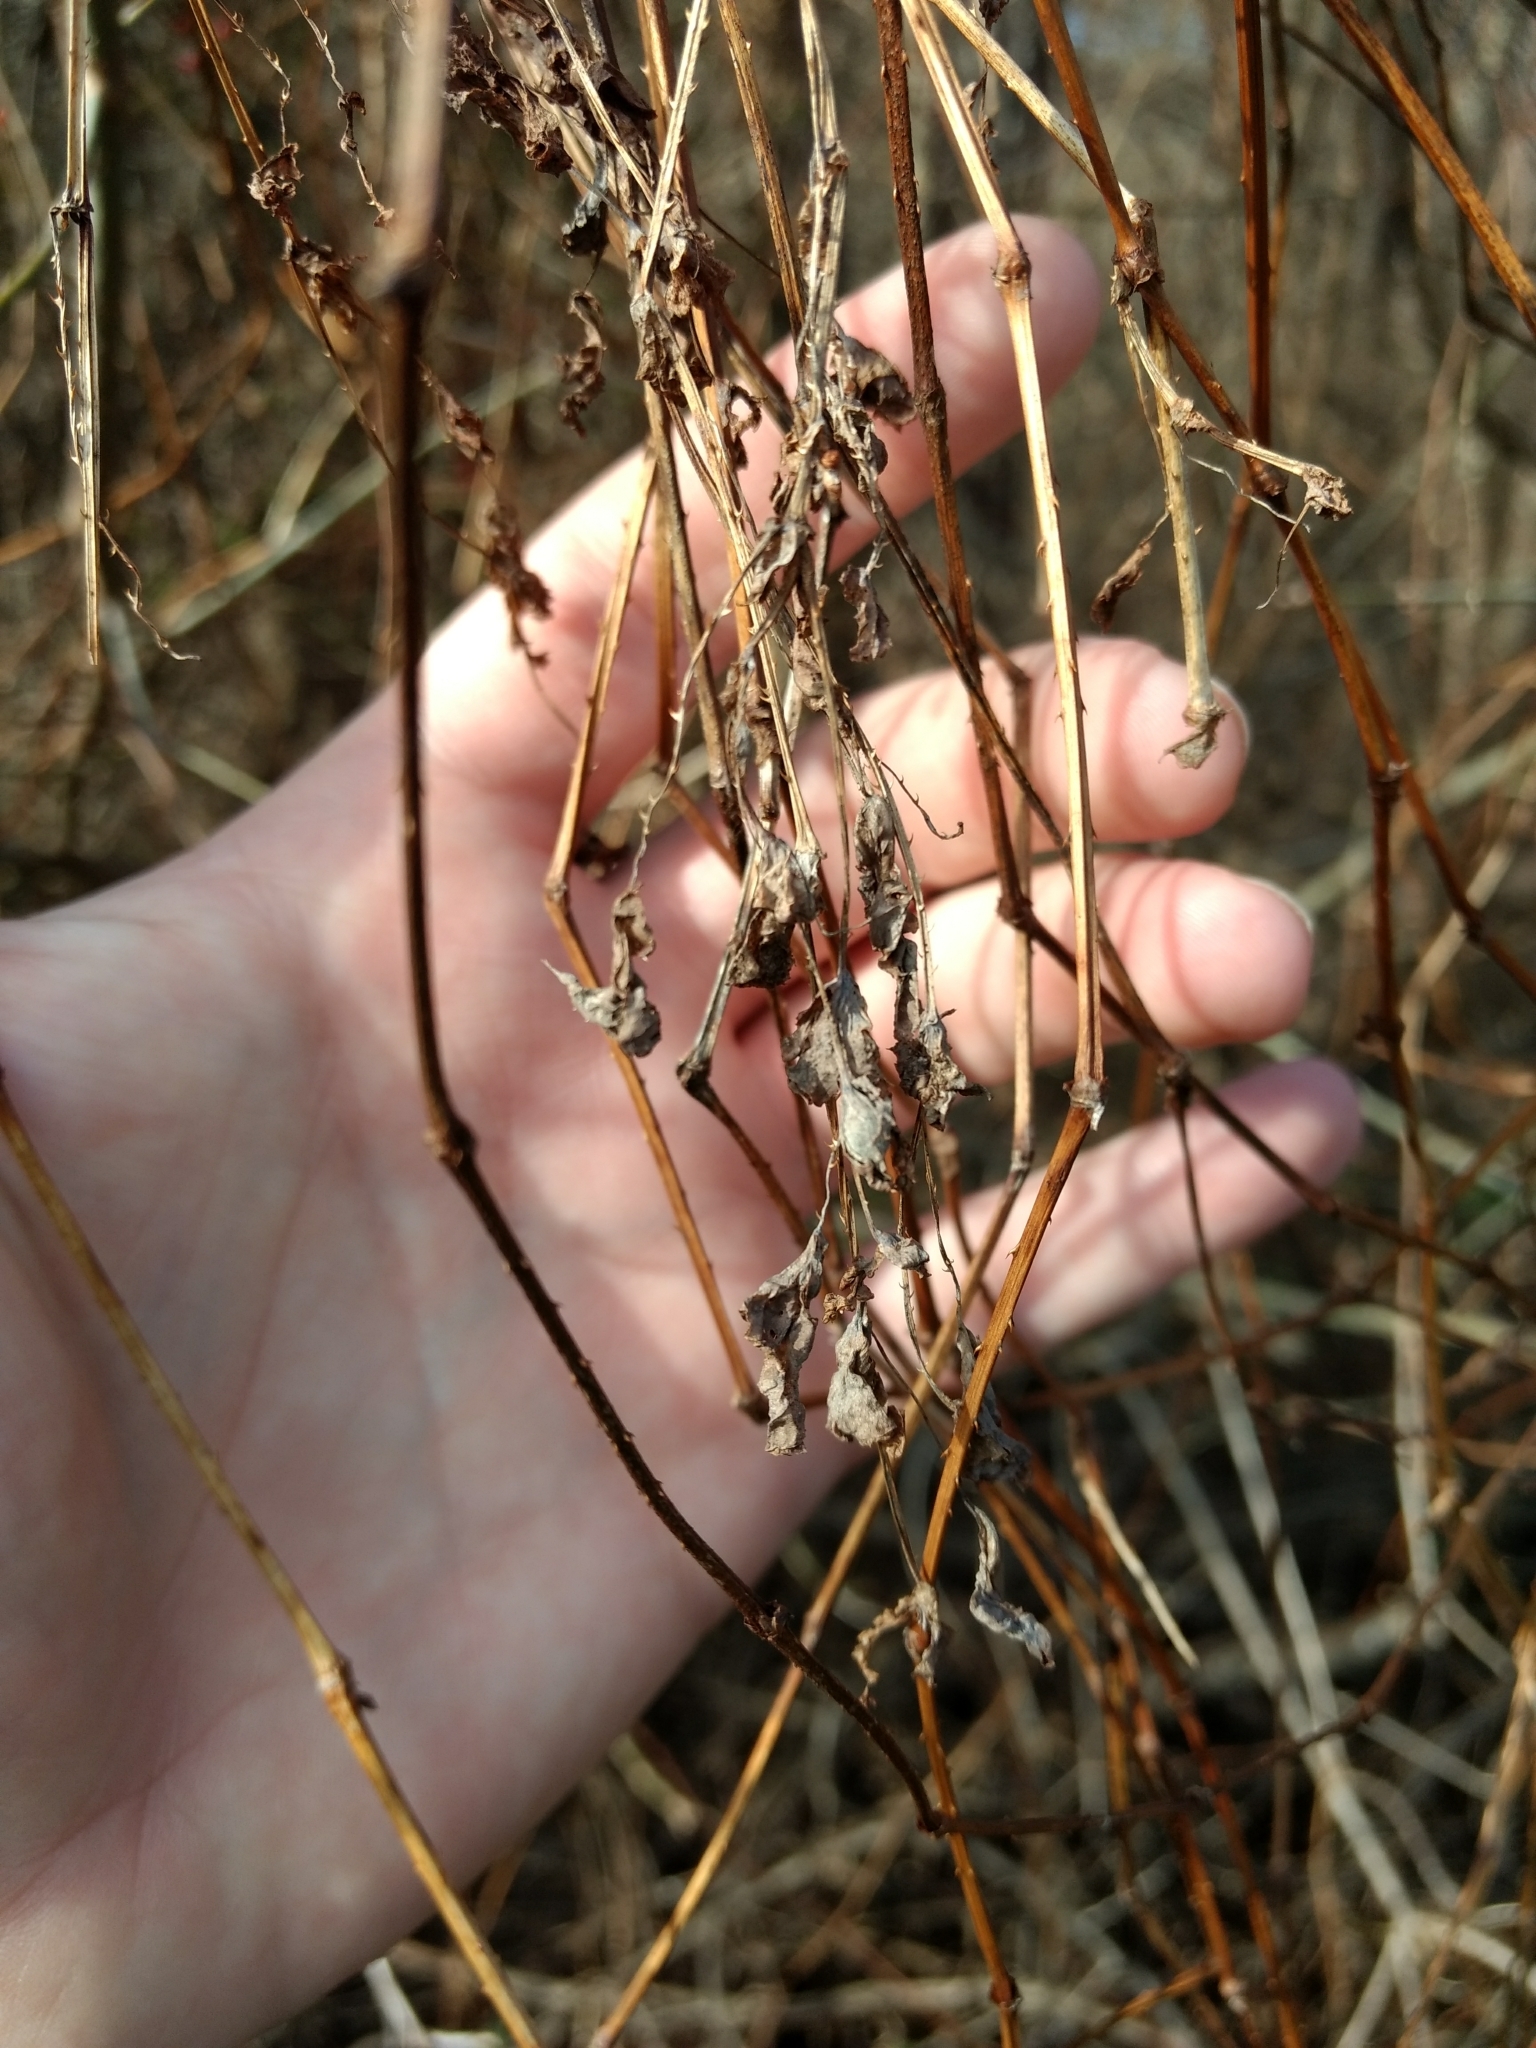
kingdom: Plantae
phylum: Tracheophyta
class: Magnoliopsida
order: Caryophyllales
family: Polygonaceae
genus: Persicaria
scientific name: Persicaria perfoliata
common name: Asiatic tearthumb
